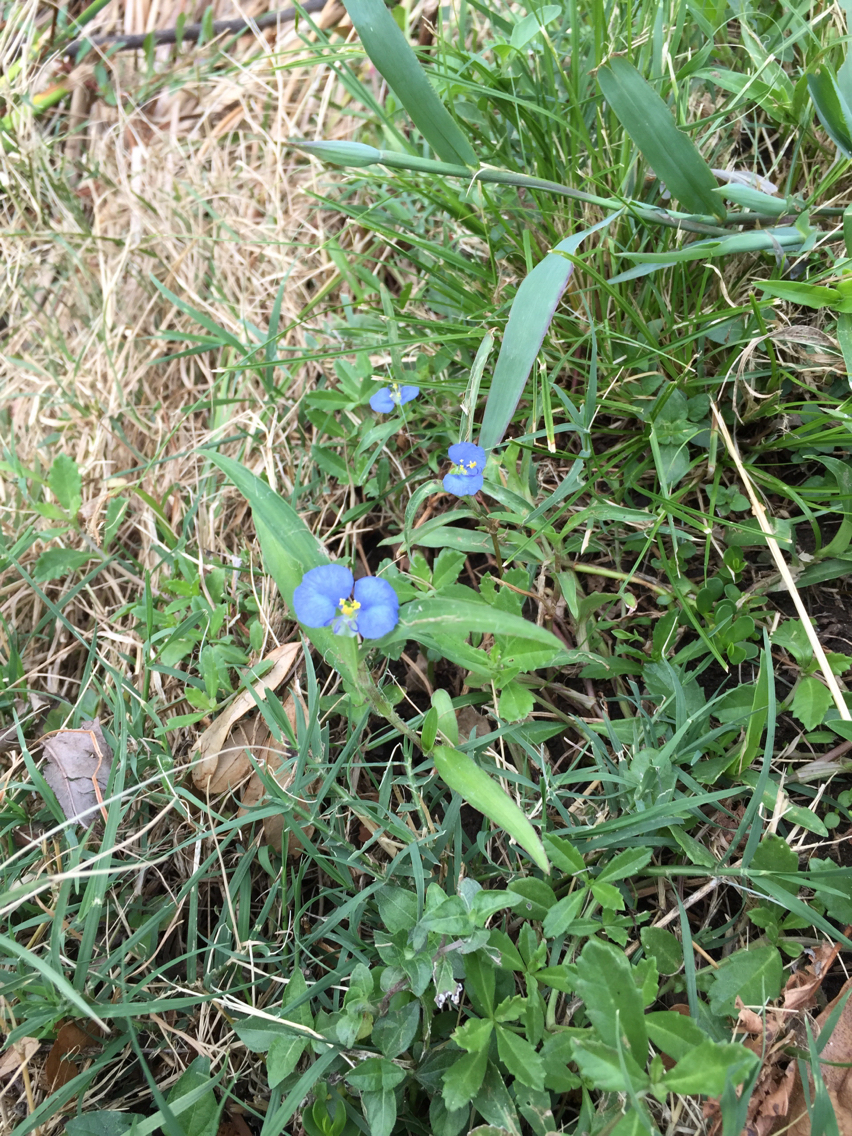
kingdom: Plantae
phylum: Tracheophyta
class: Liliopsida
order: Commelinales
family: Commelinaceae
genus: Commelina
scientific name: Commelina erecta
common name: Blousel blommetjie
